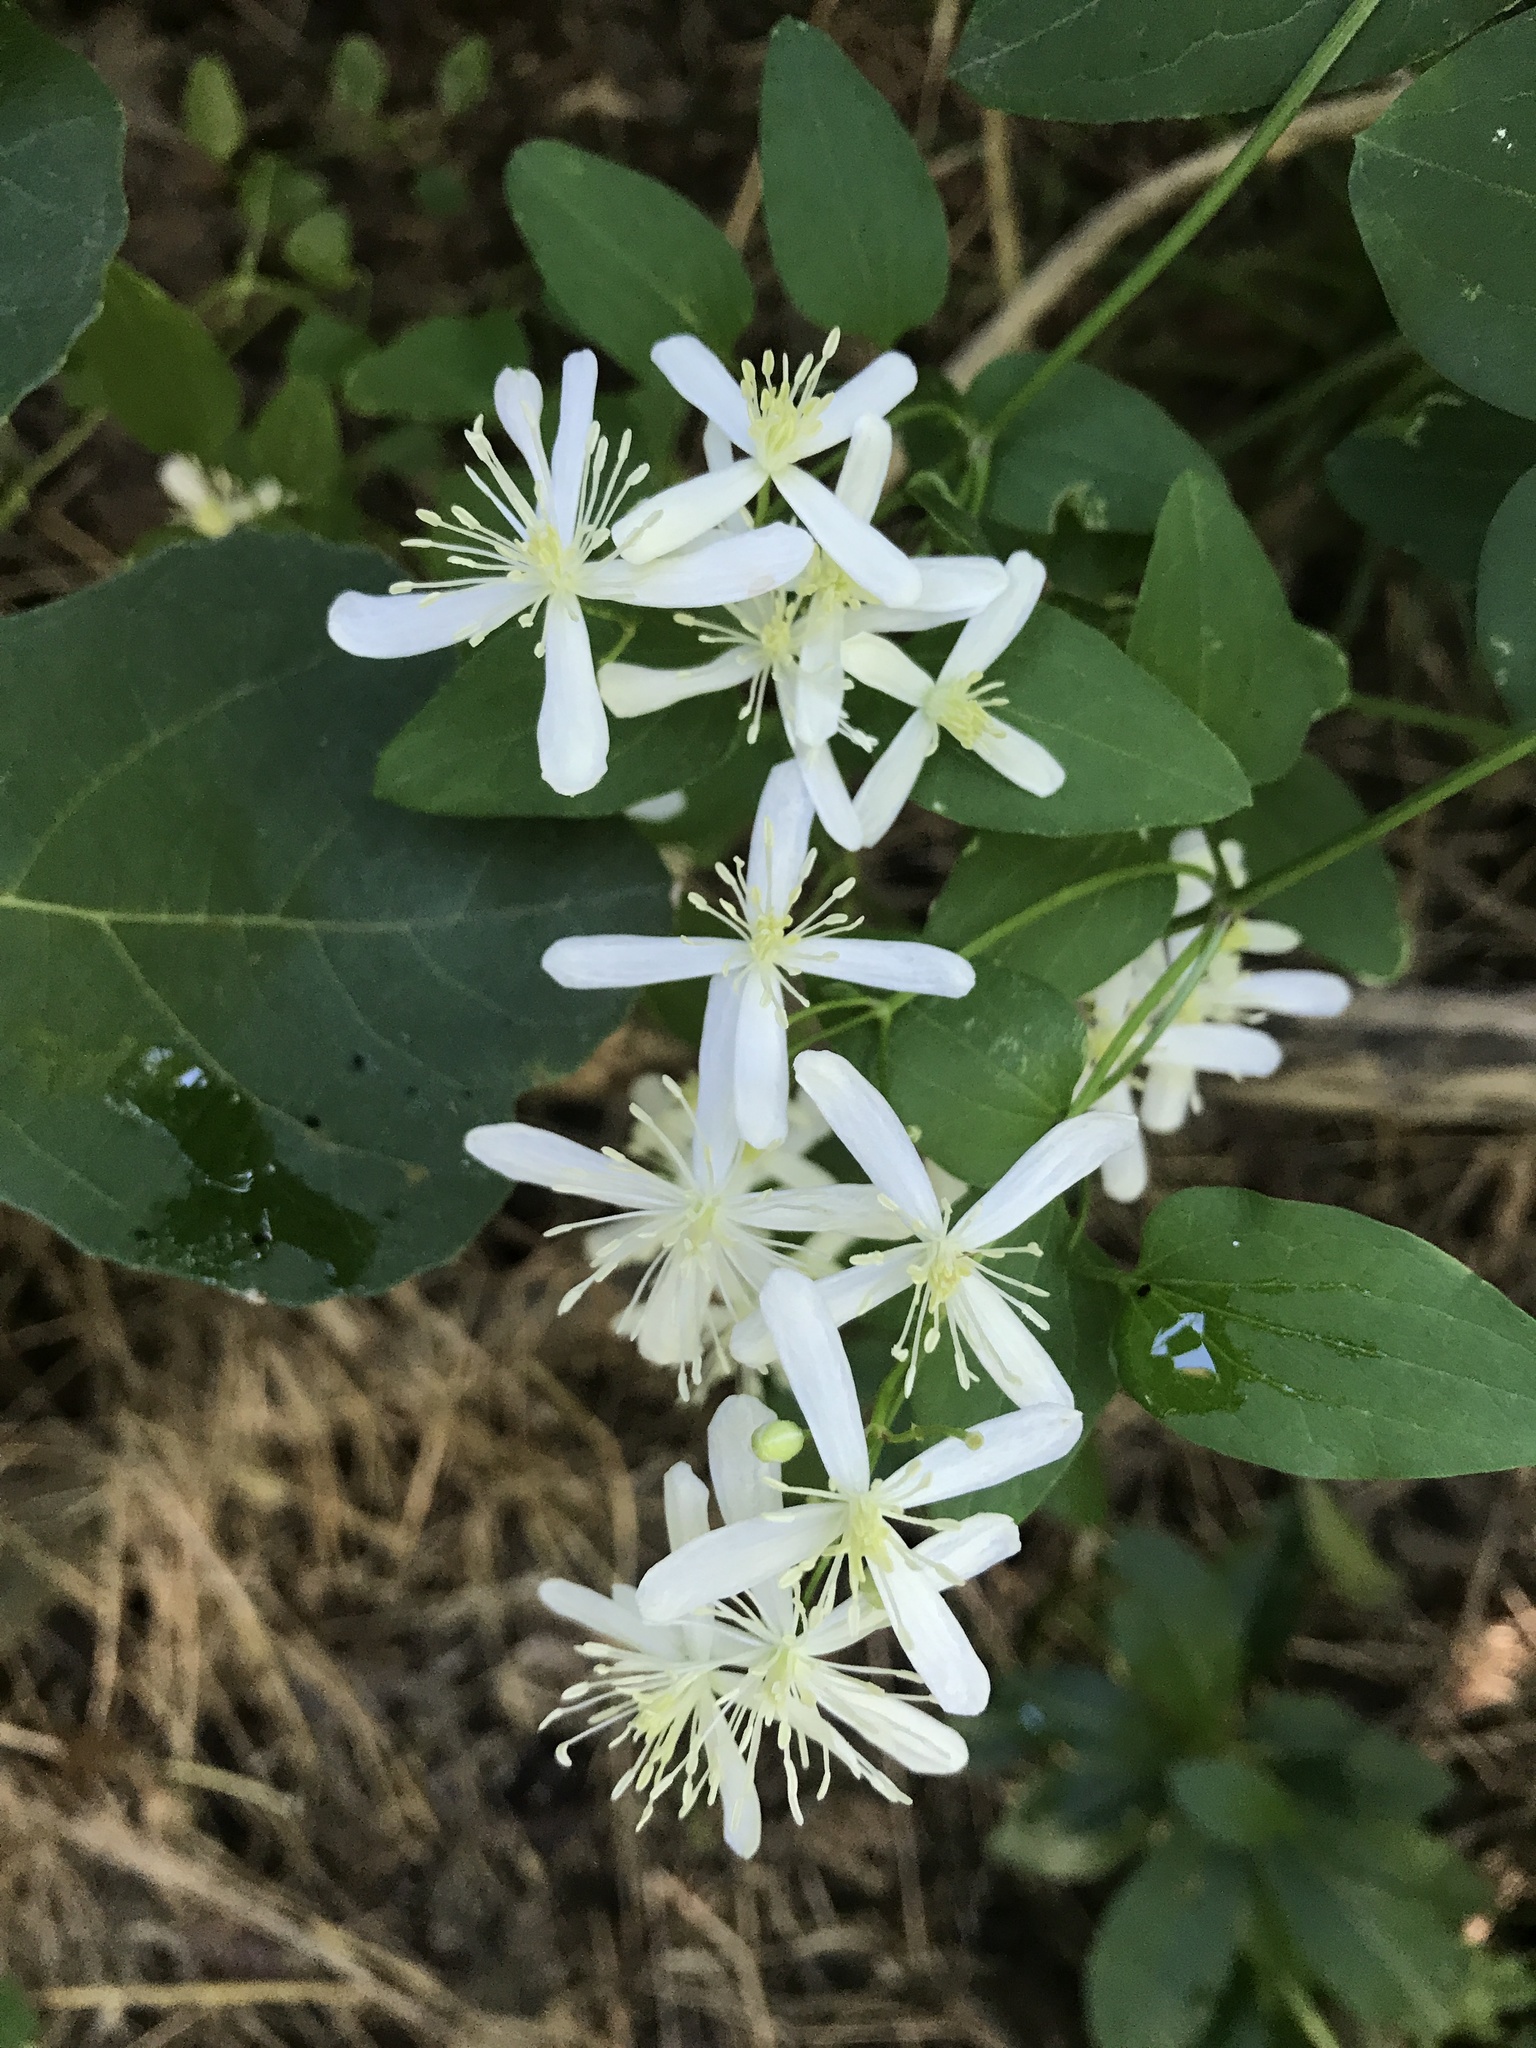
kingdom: Plantae
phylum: Tracheophyta
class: Magnoliopsida
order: Ranunculales
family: Ranunculaceae
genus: Clematis
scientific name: Clematis terniflora
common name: Sweet autumn clematis
